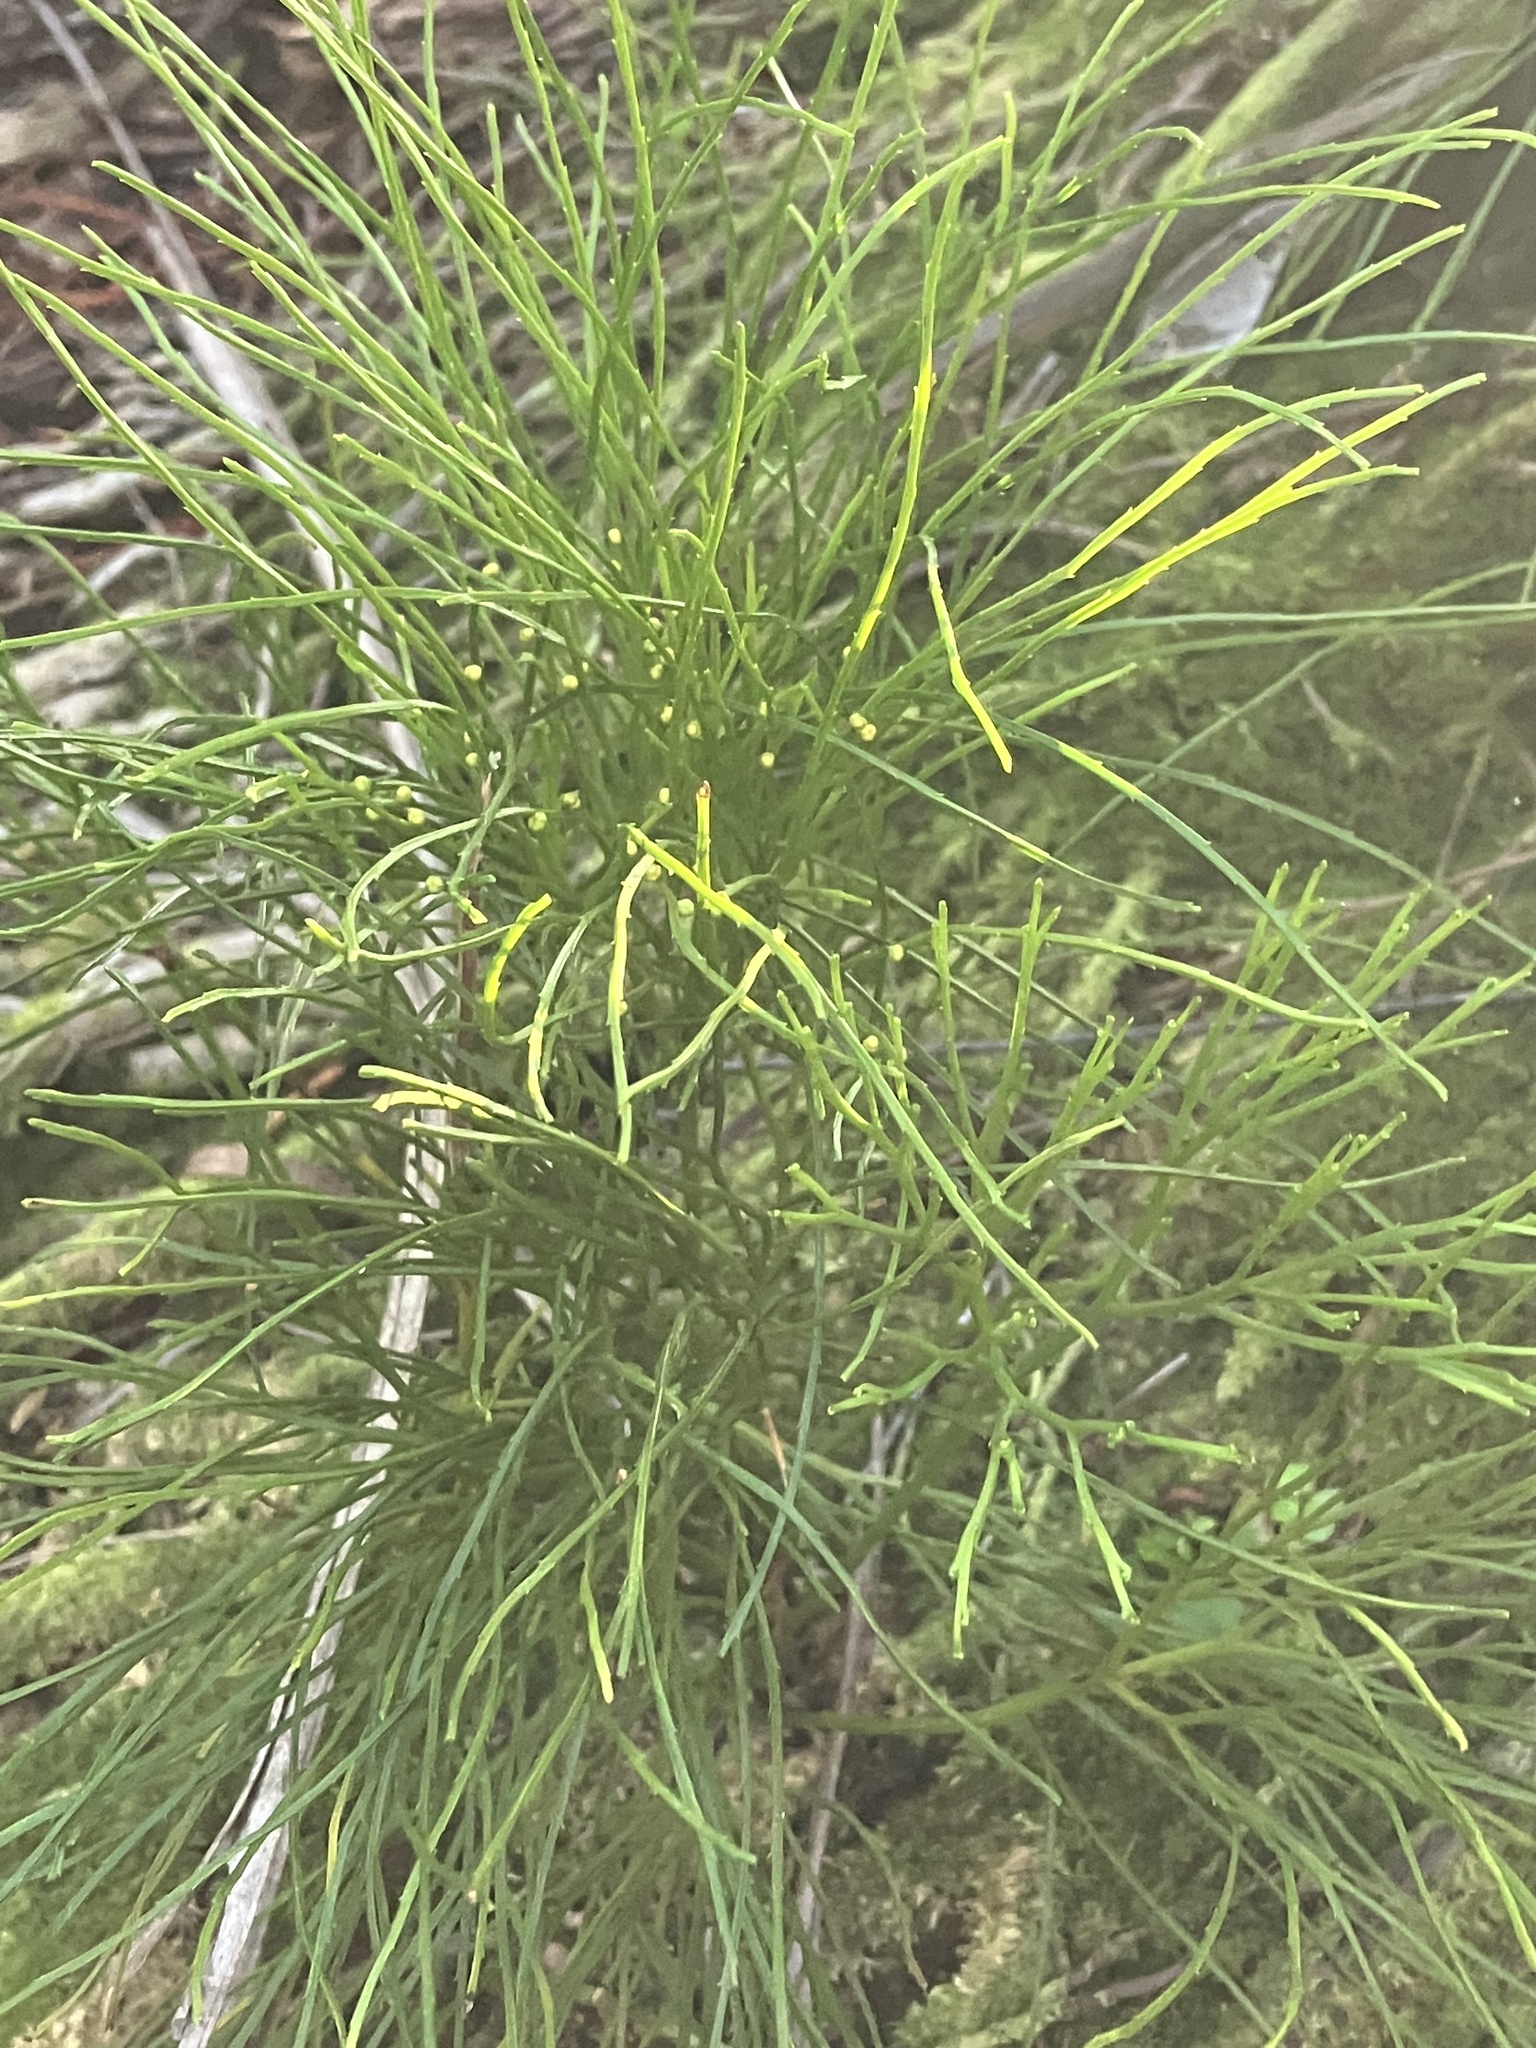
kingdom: Plantae
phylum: Tracheophyta
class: Polypodiopsida
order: Psilotales
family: Psilotaceae
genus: Psilotum
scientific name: Psilotum nudum
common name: Skeleton fork fern
